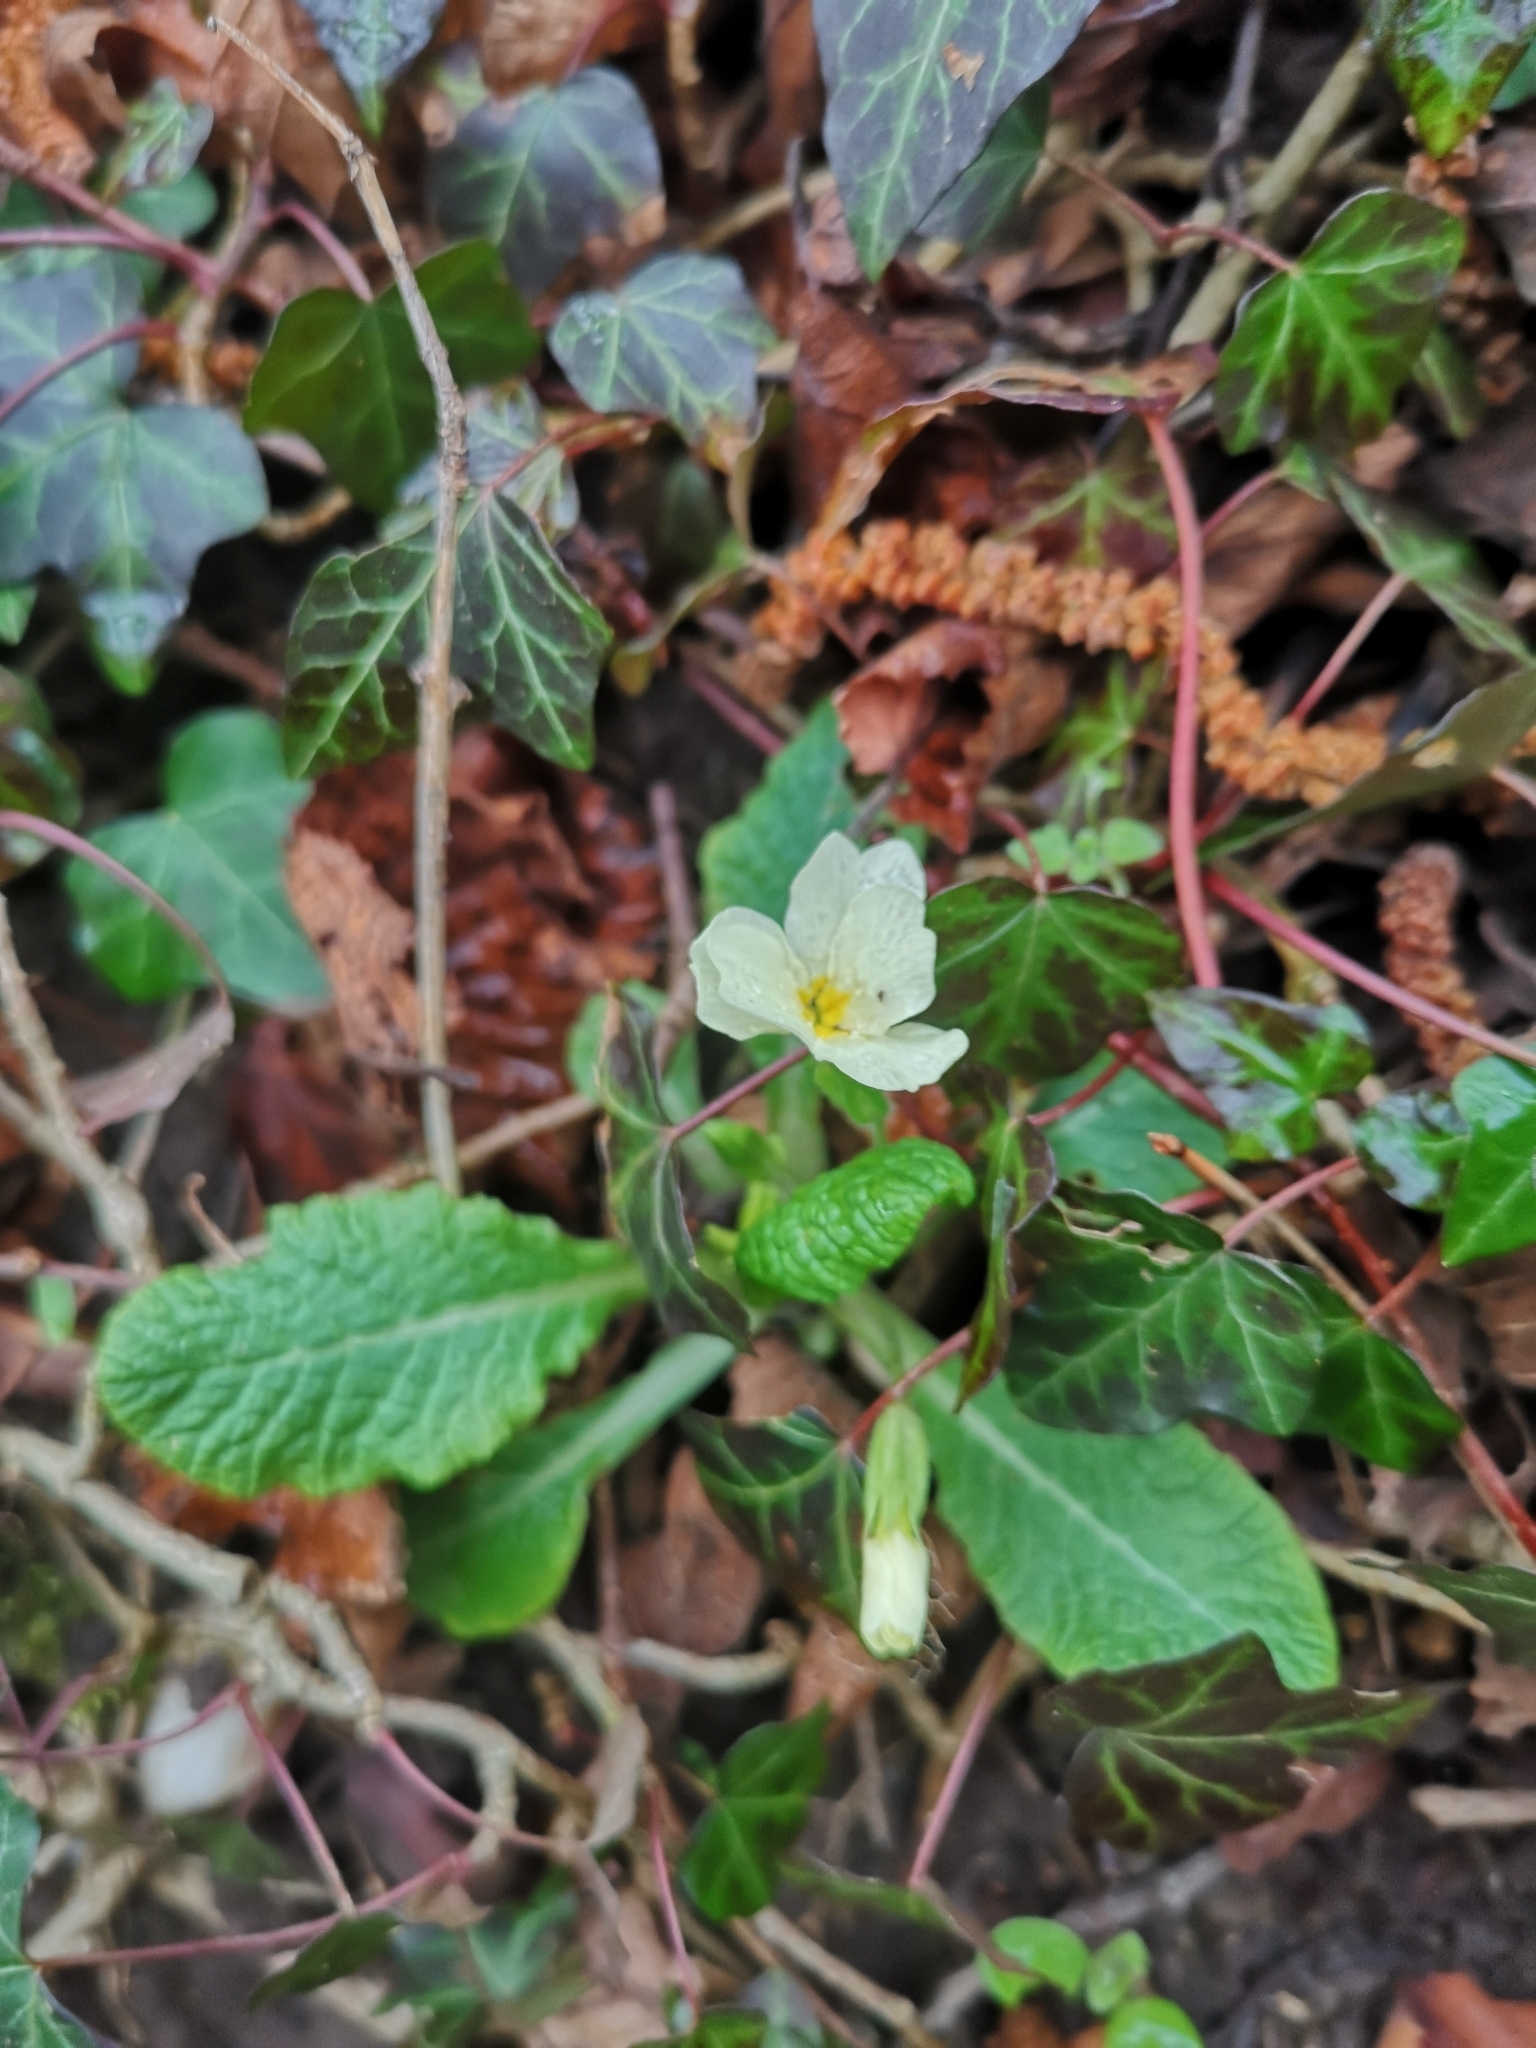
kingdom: Plantae
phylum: Tracheophyta
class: Magnoliopsida
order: Ericales
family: Primulaceae
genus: Primula
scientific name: Primula vulgaris
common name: Primrose
